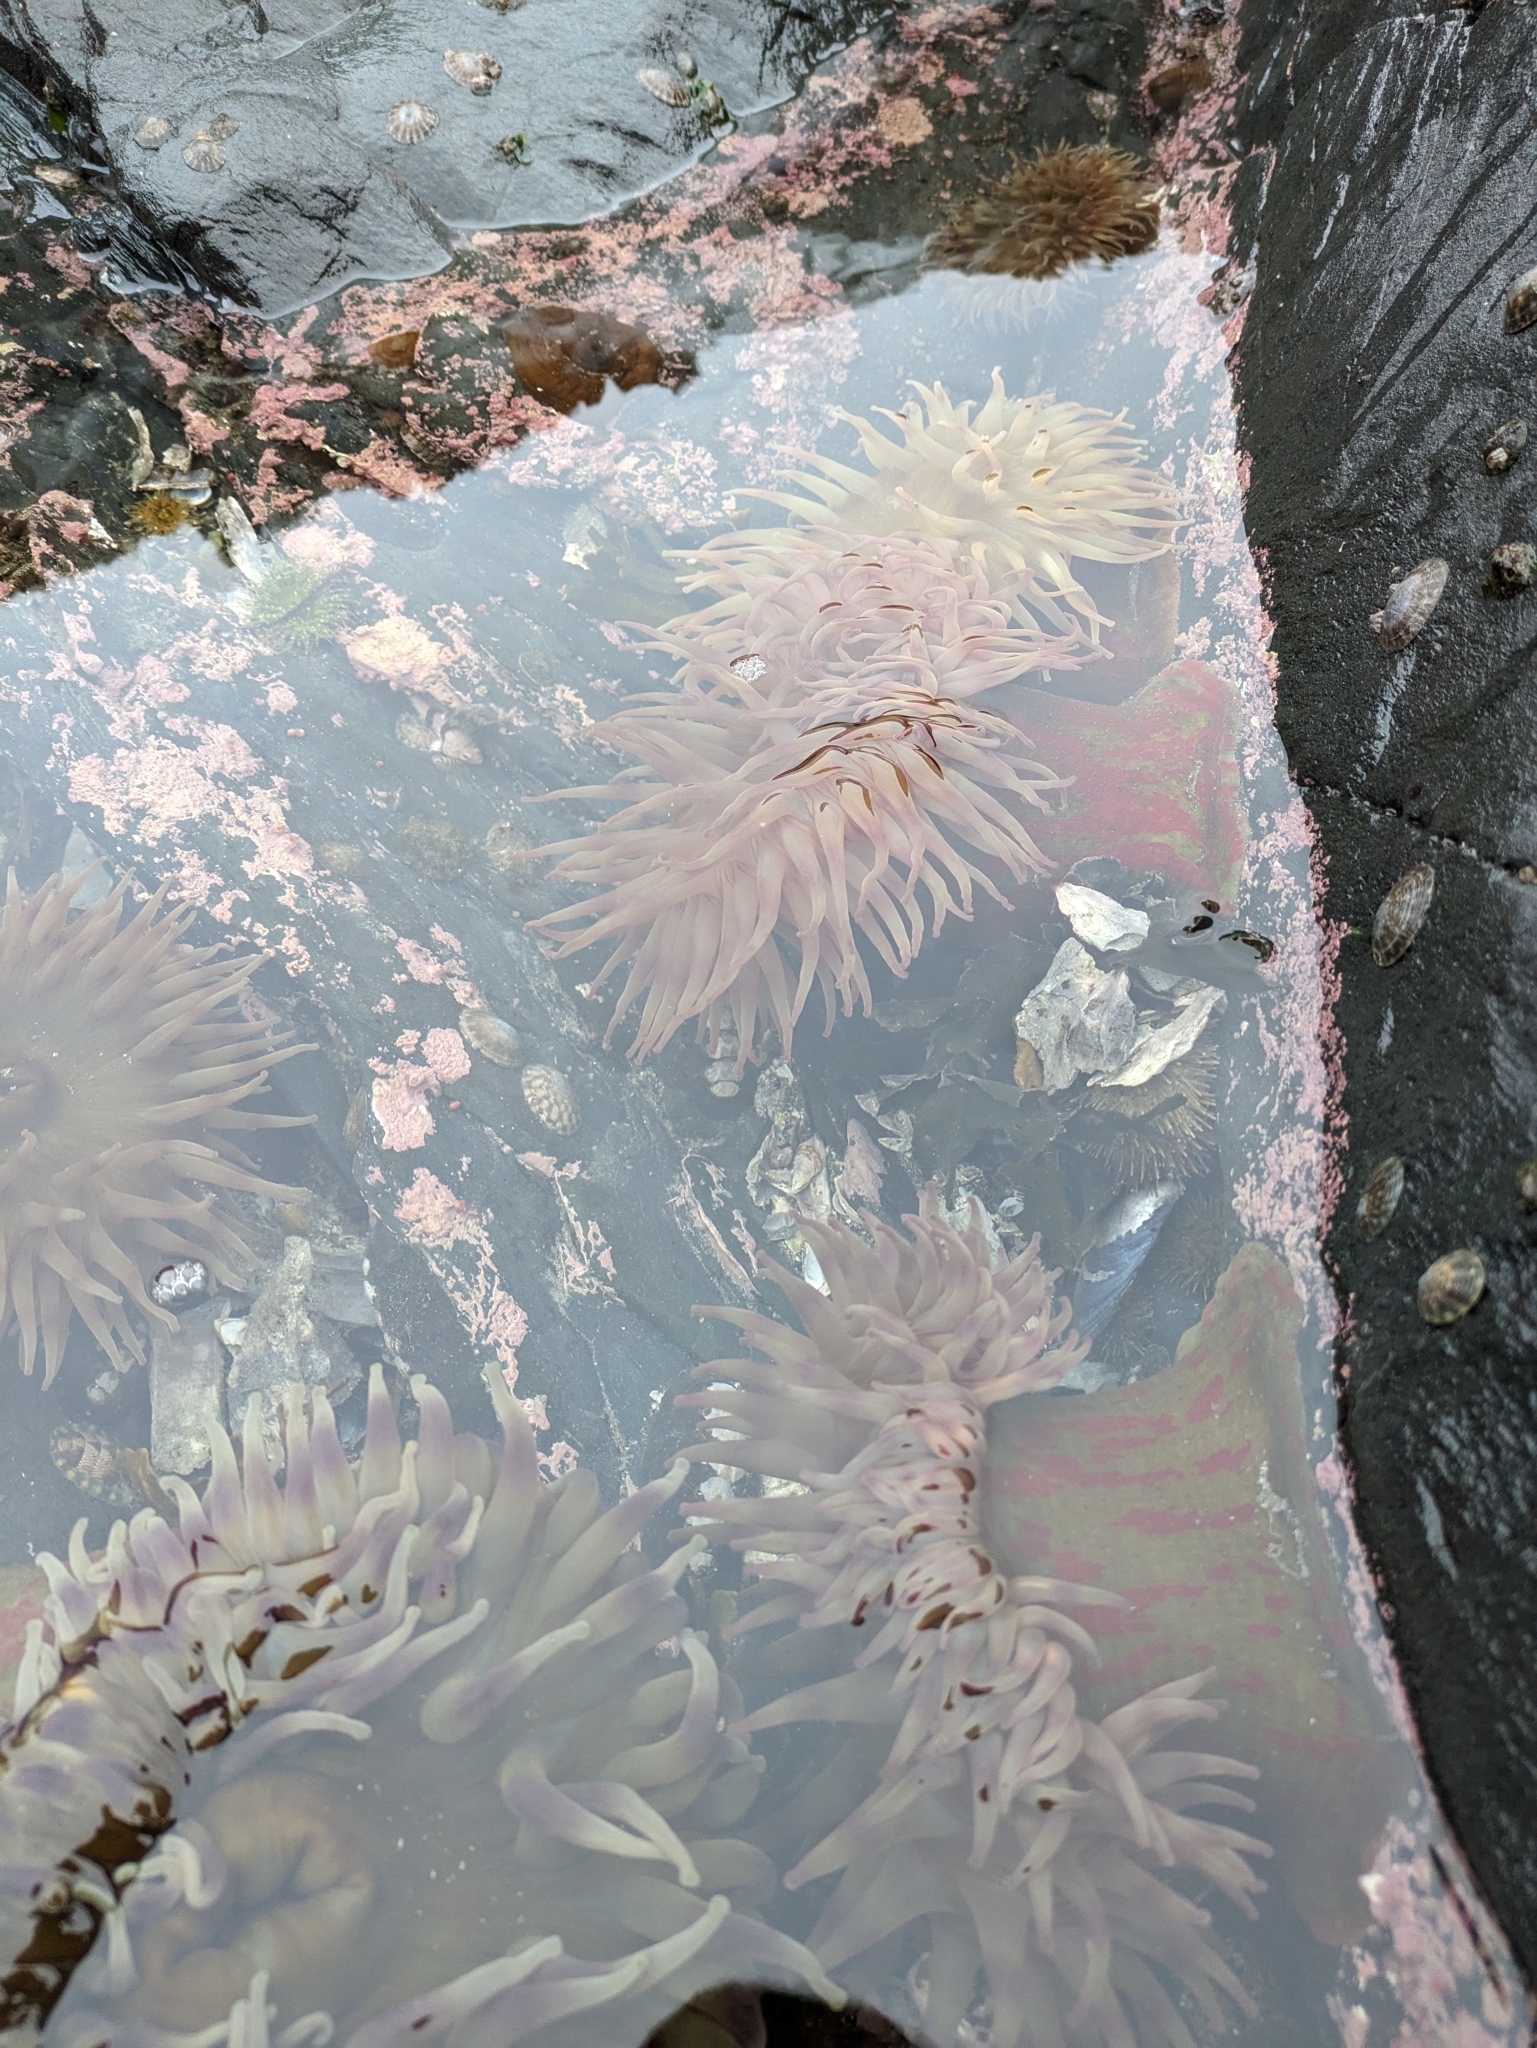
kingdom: Animalia
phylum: Cnidaria
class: Anthozoa
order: Actiniaria
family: Actiniidae
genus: Urticina
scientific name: Urticina grebelnyi
